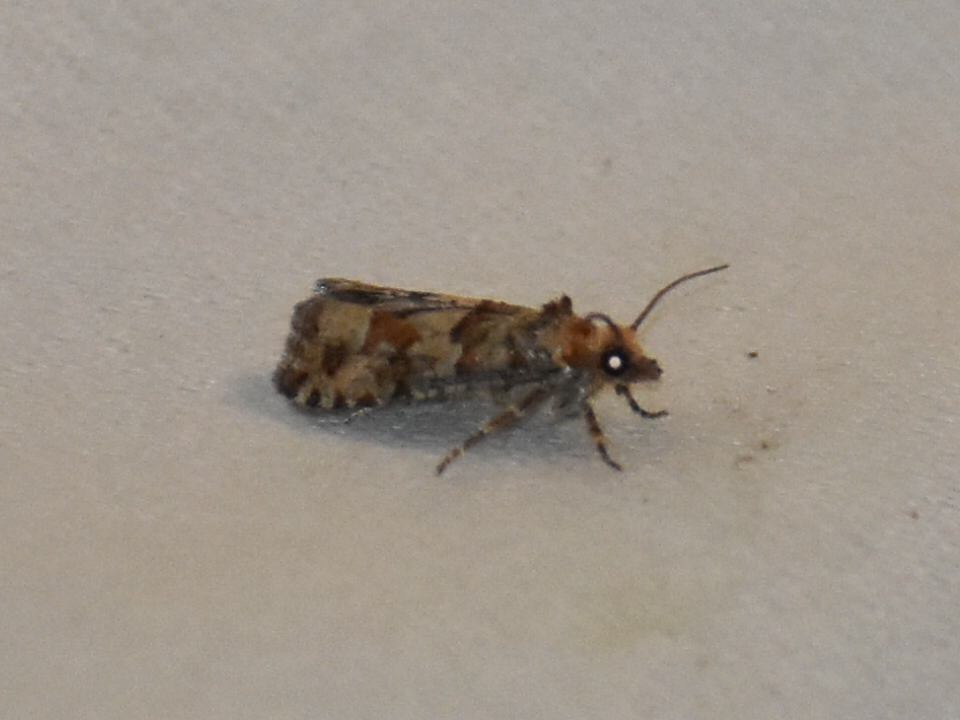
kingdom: Animalia
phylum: Arthropoda
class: Insecta
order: Lepidoptera
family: Tortricidae
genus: Eucopina
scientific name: Eucopina tocullionana
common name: White pinecone borer moth
